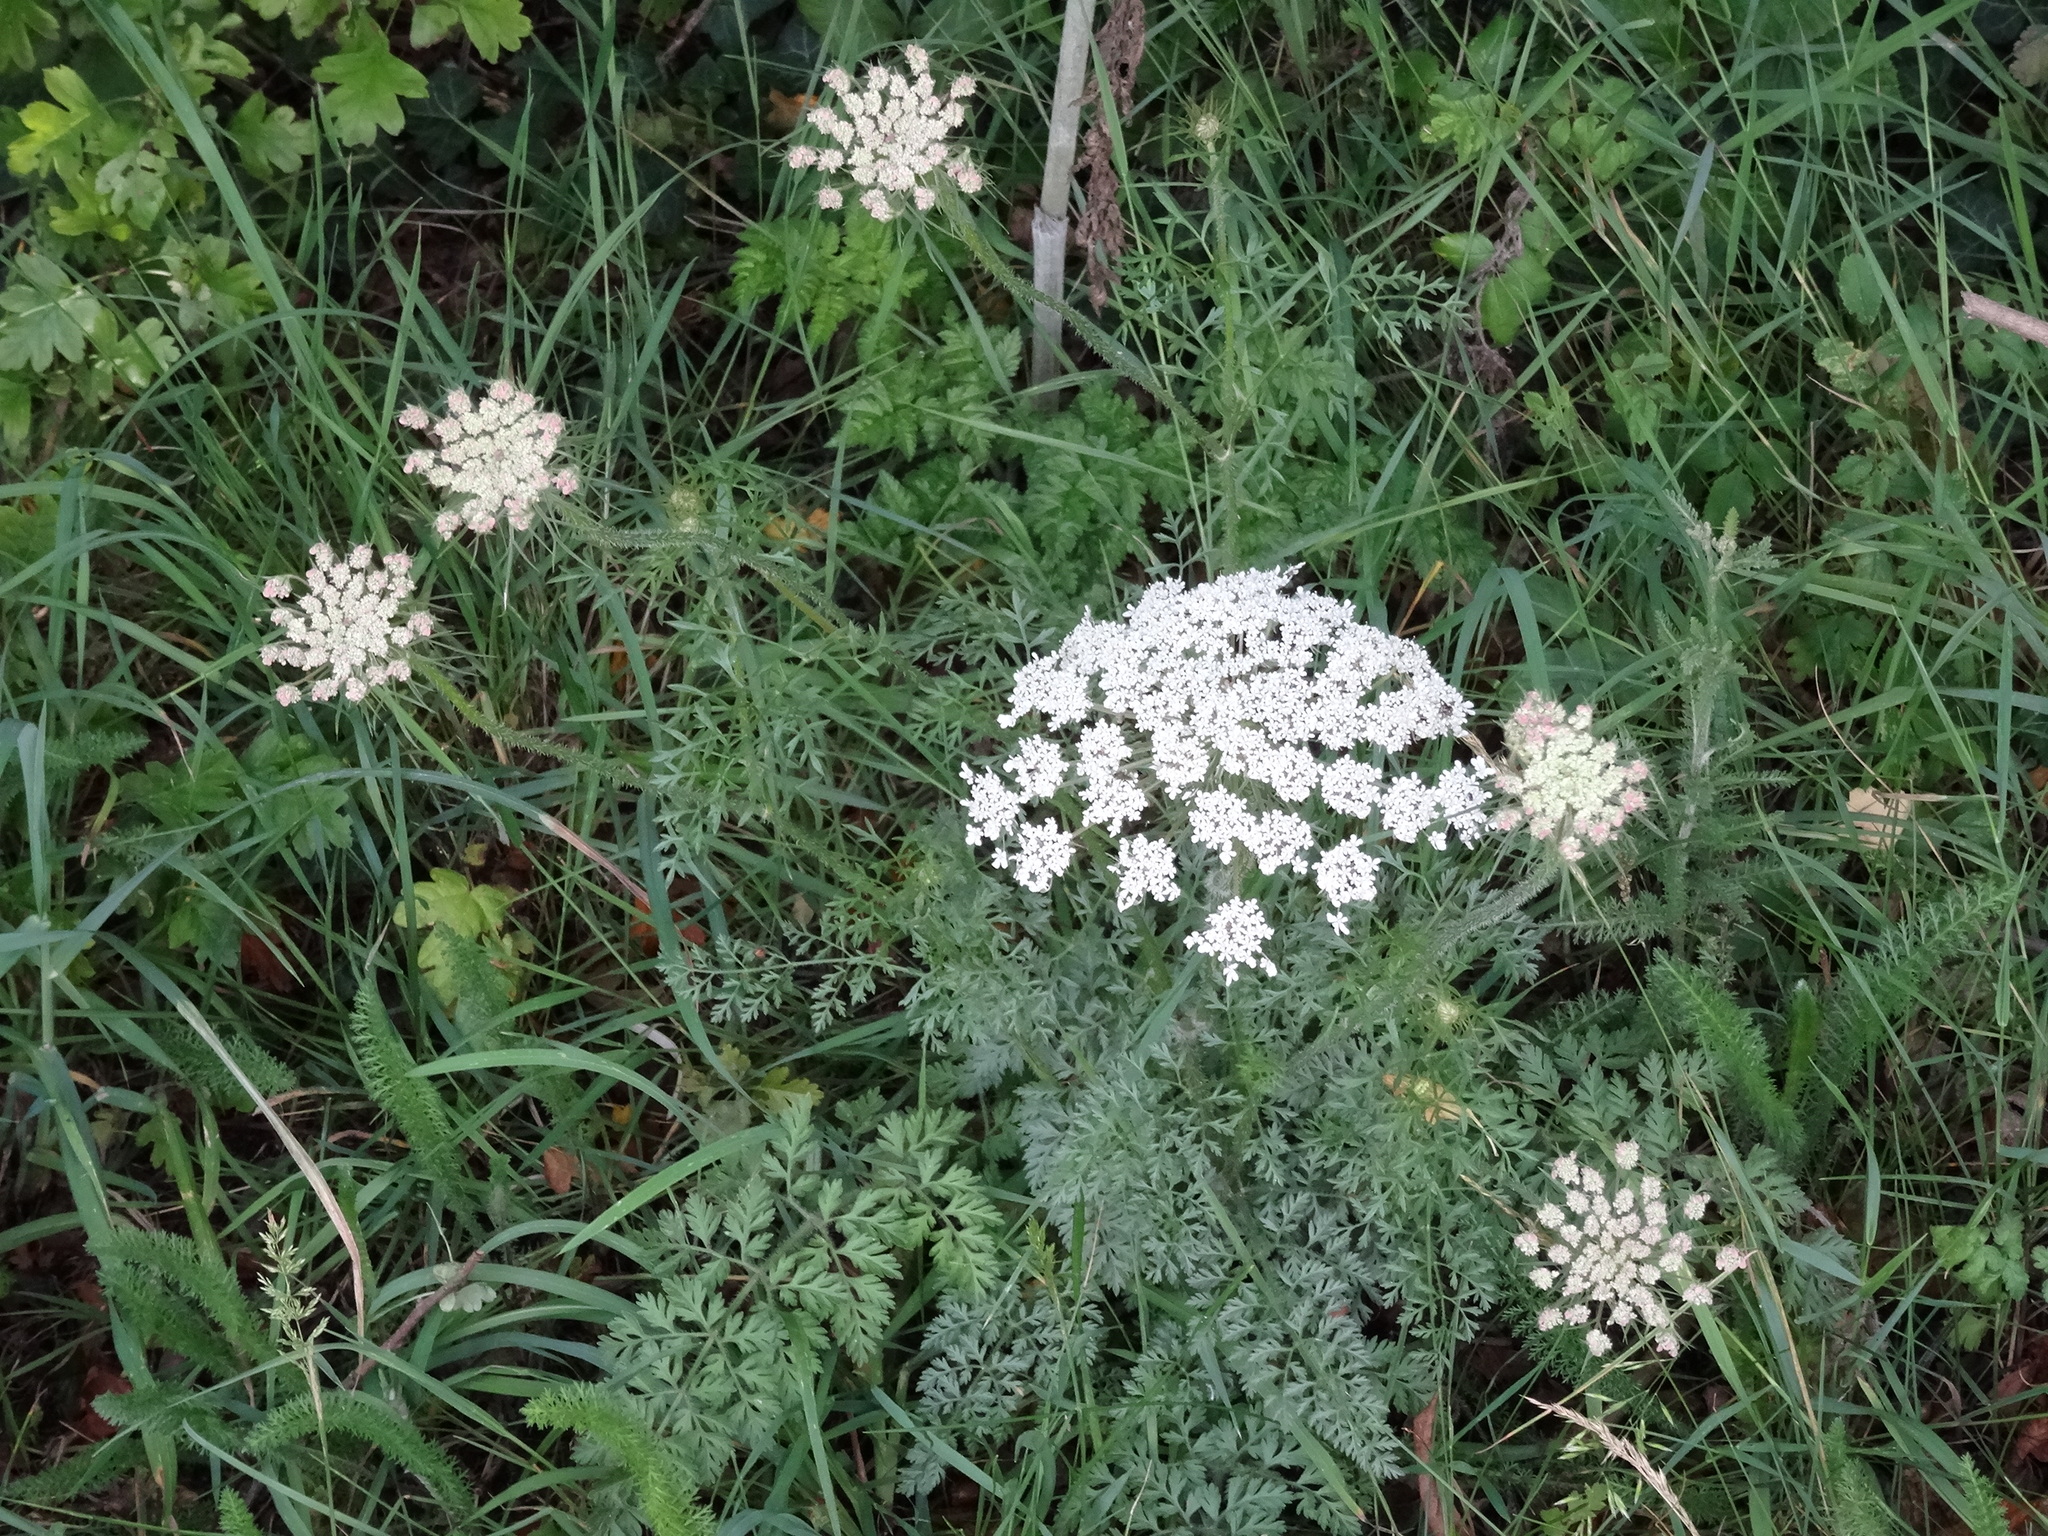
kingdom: Plantae
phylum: Tracheophyta
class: Magnoliopsida
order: Apiales
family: Apiaceae
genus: Daucus
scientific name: Daucus carota
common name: Wild carrot
